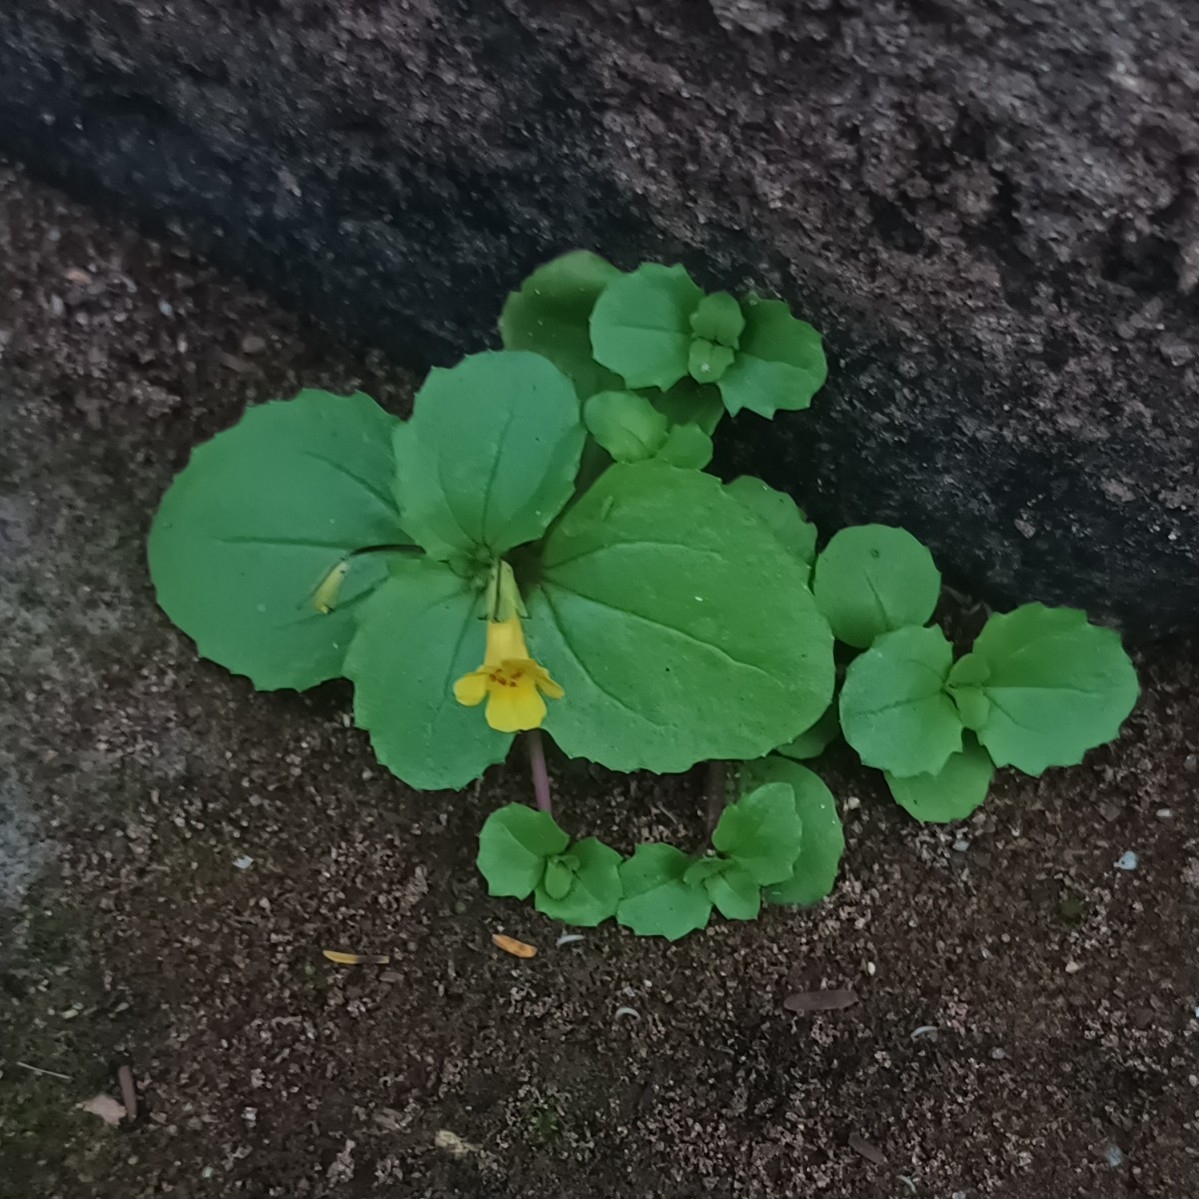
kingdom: Plantae
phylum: Tracheophyta
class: Magnoliopsida
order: Lamiales
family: Phrymaceae
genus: Erythranthe
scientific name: Erythranthe glabrata
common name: Round-leaved monkeyflower
